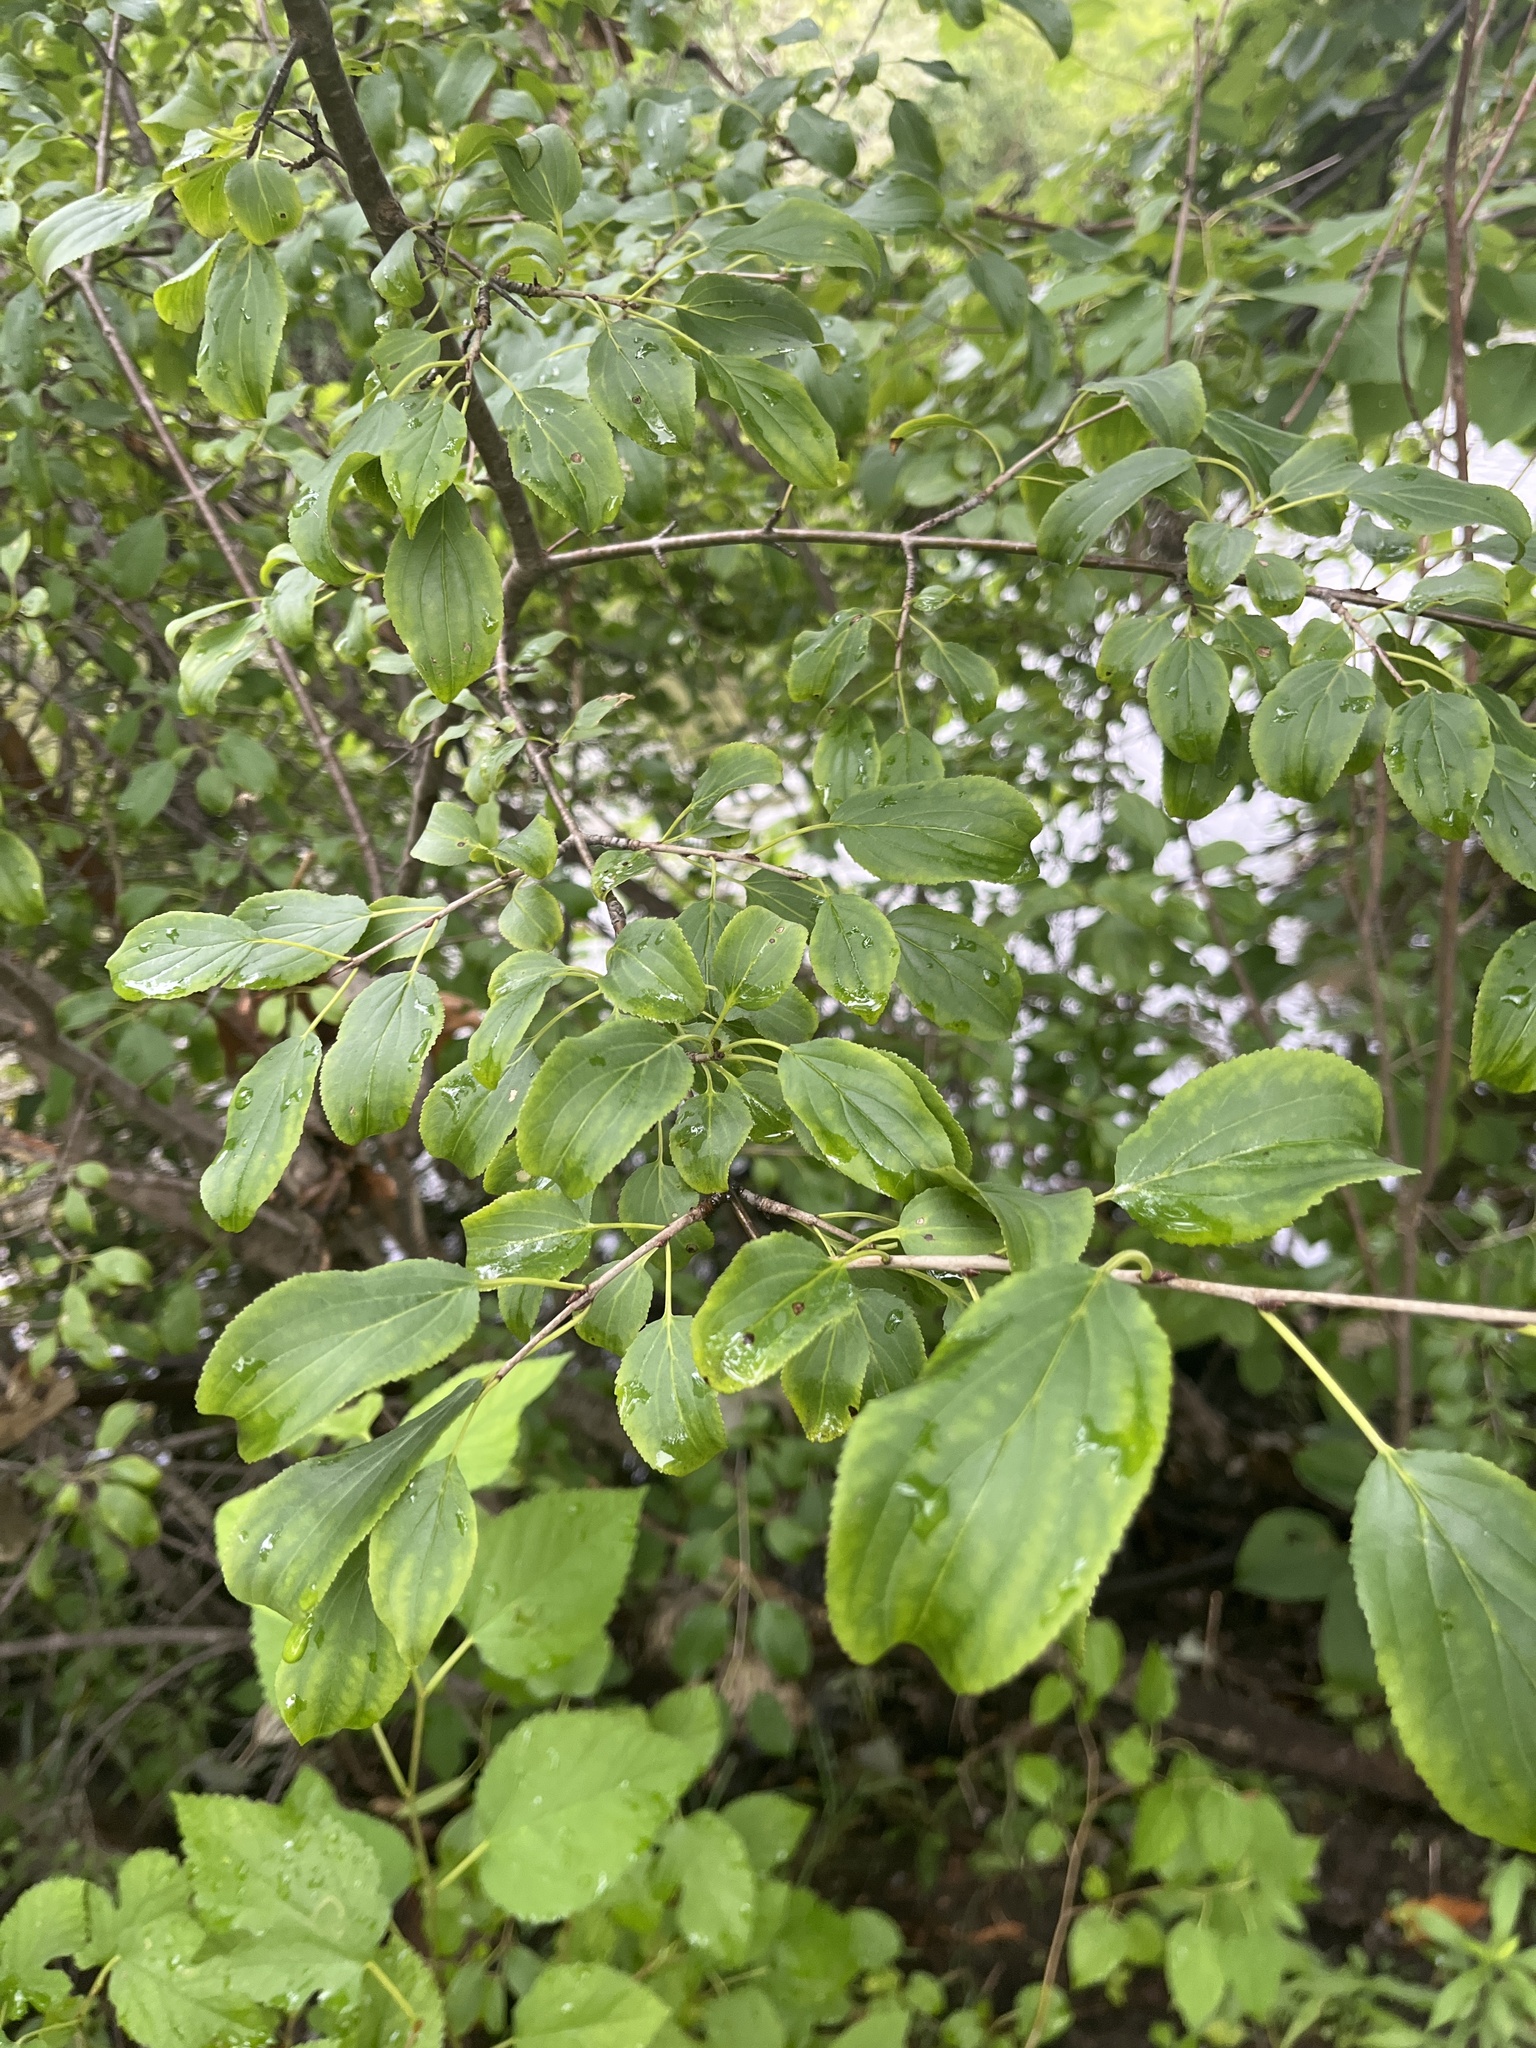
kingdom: Plantae
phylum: Tracheophyta
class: Magnoliopsida
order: Rosales
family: Rhamnaceae
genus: Rhamnus
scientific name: Rhamnus cathartica
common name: Common buckthorn
